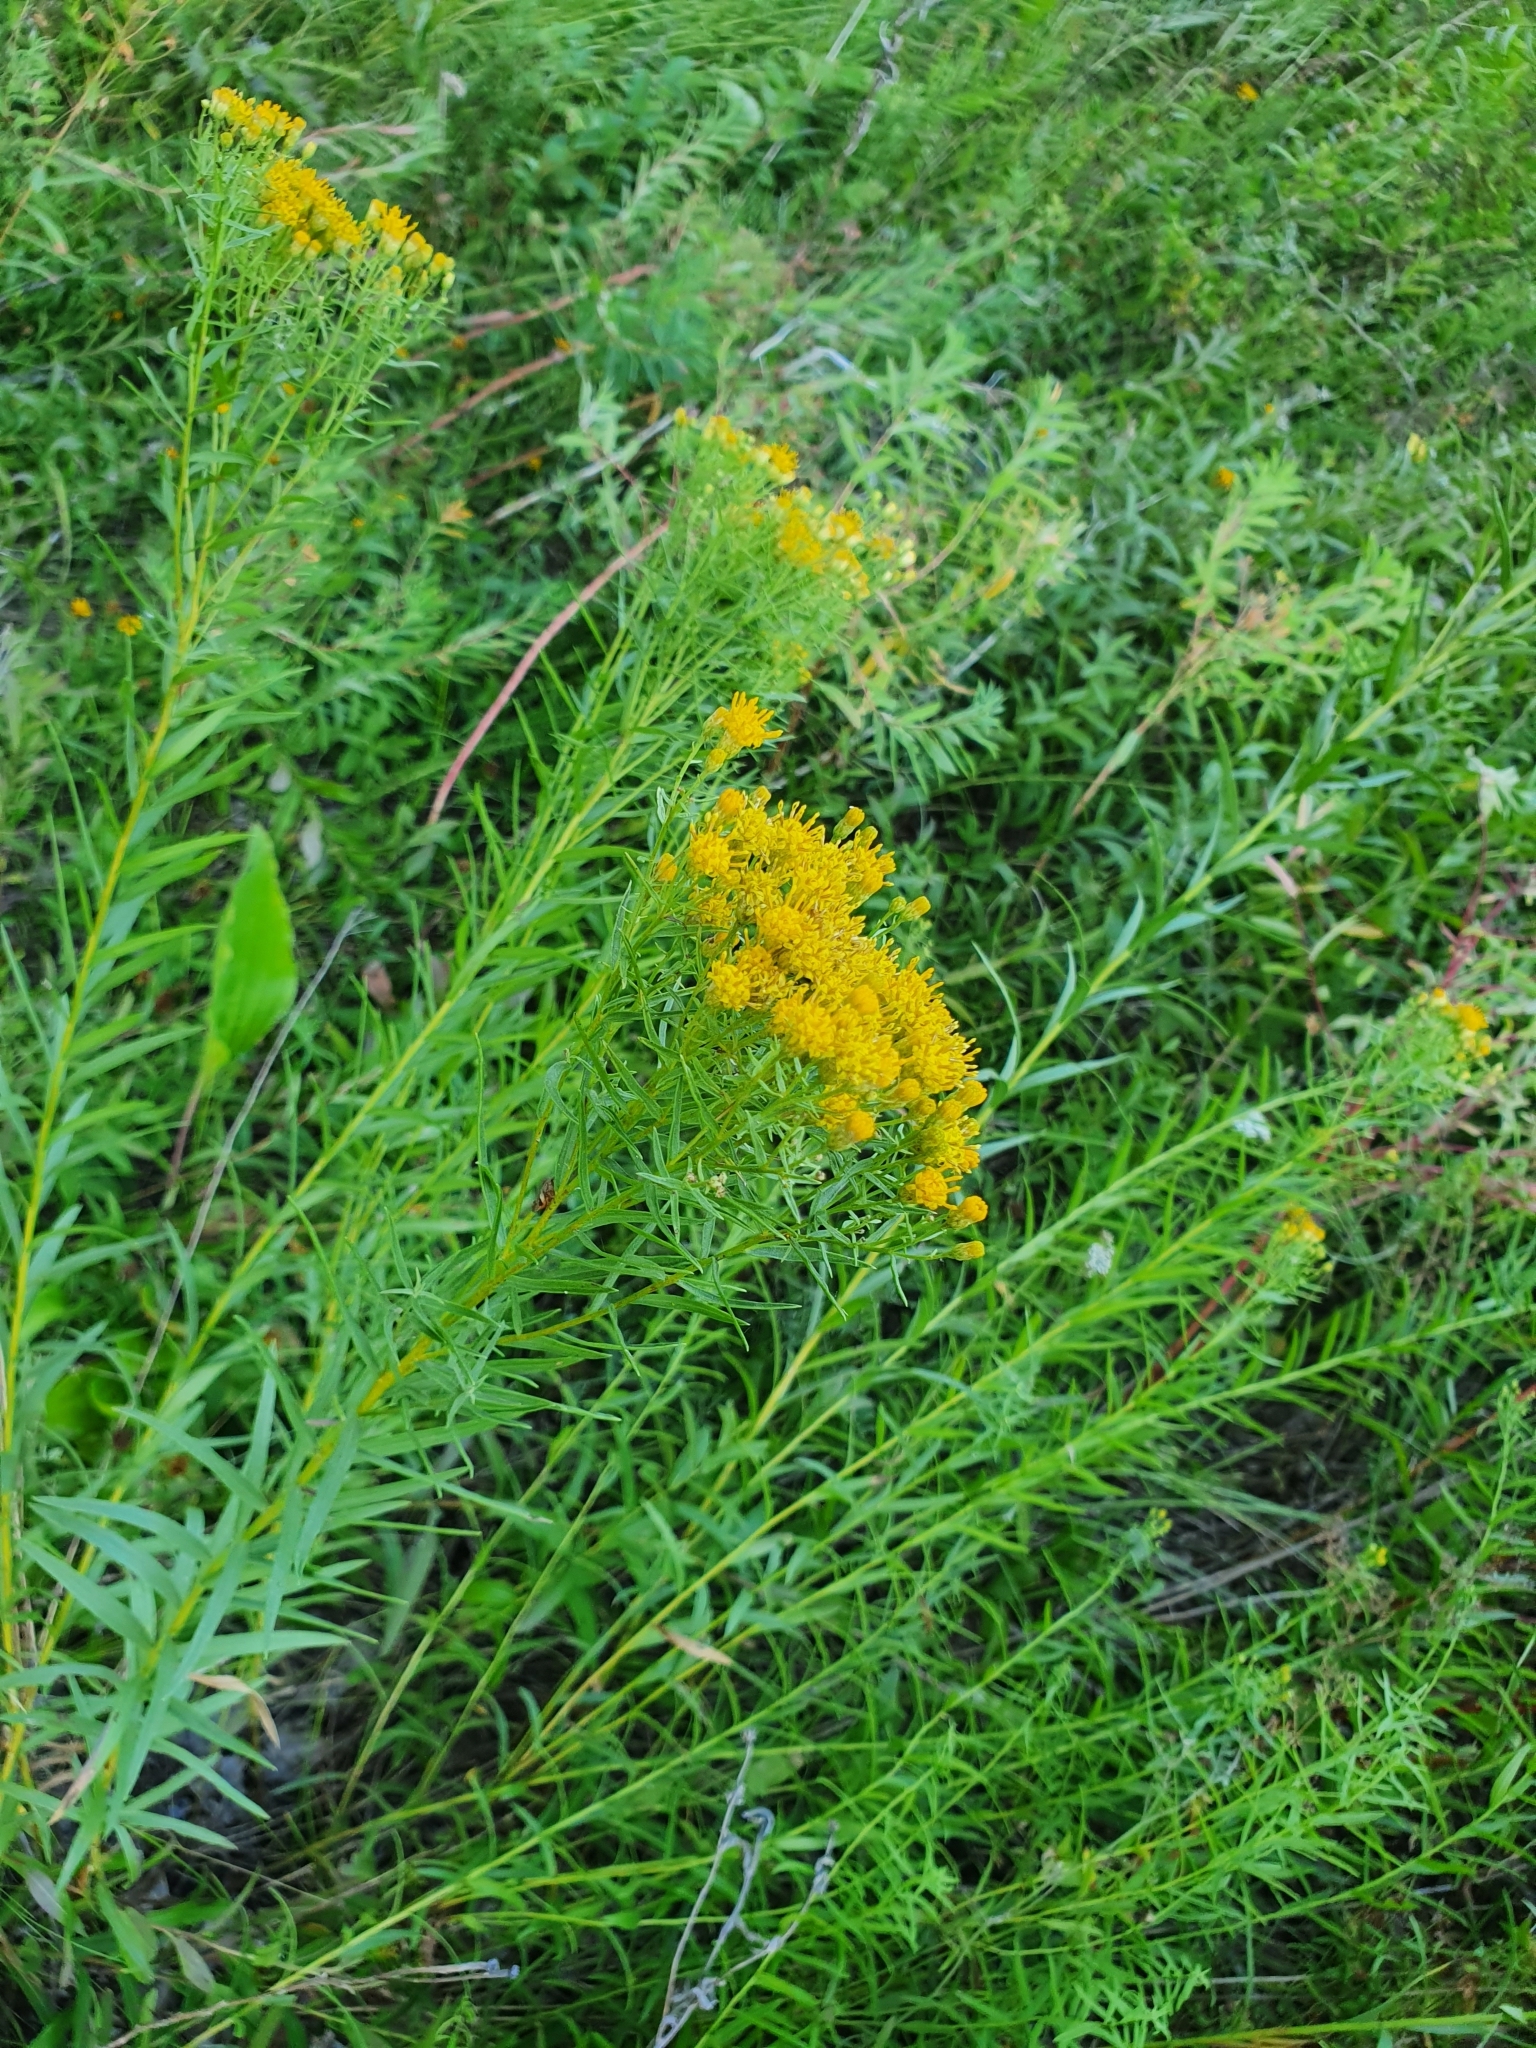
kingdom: Plantae
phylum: Tracheophyta
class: Magnoliopsida
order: Asterales
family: Asteraceae
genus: Galatella
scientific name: Galatella biflora
